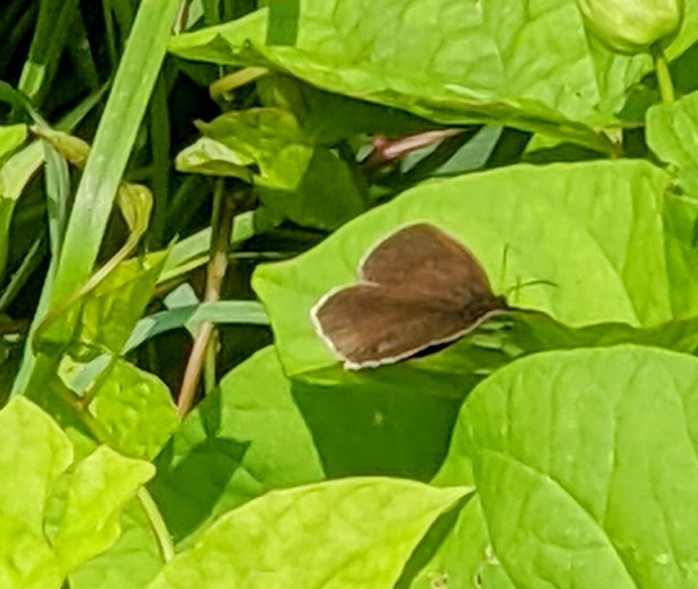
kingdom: Animalia
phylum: Arthropoda
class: Insecta
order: Lepidoptera
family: Nymphalidae
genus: Aphantopus
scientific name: Aphantopus hyperantus
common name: Ringlet
